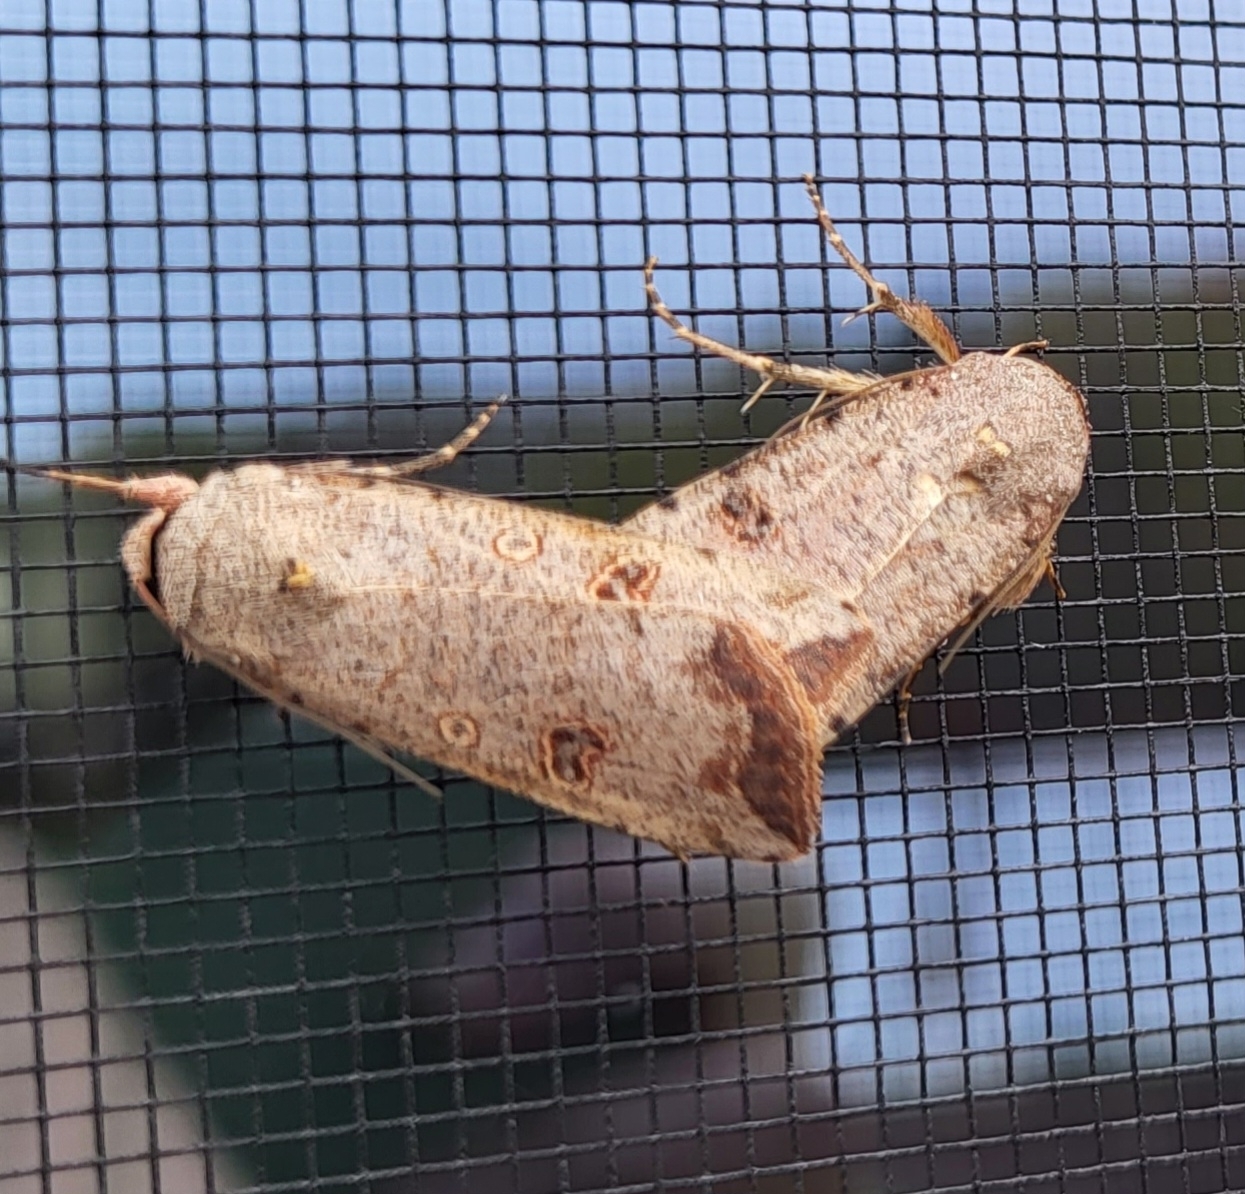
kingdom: Animalia
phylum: Arthropoda
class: Insecta
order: Lepidoptera
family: Noctuidae
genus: Anicla
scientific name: Anicla infecta
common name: Green cutworm
